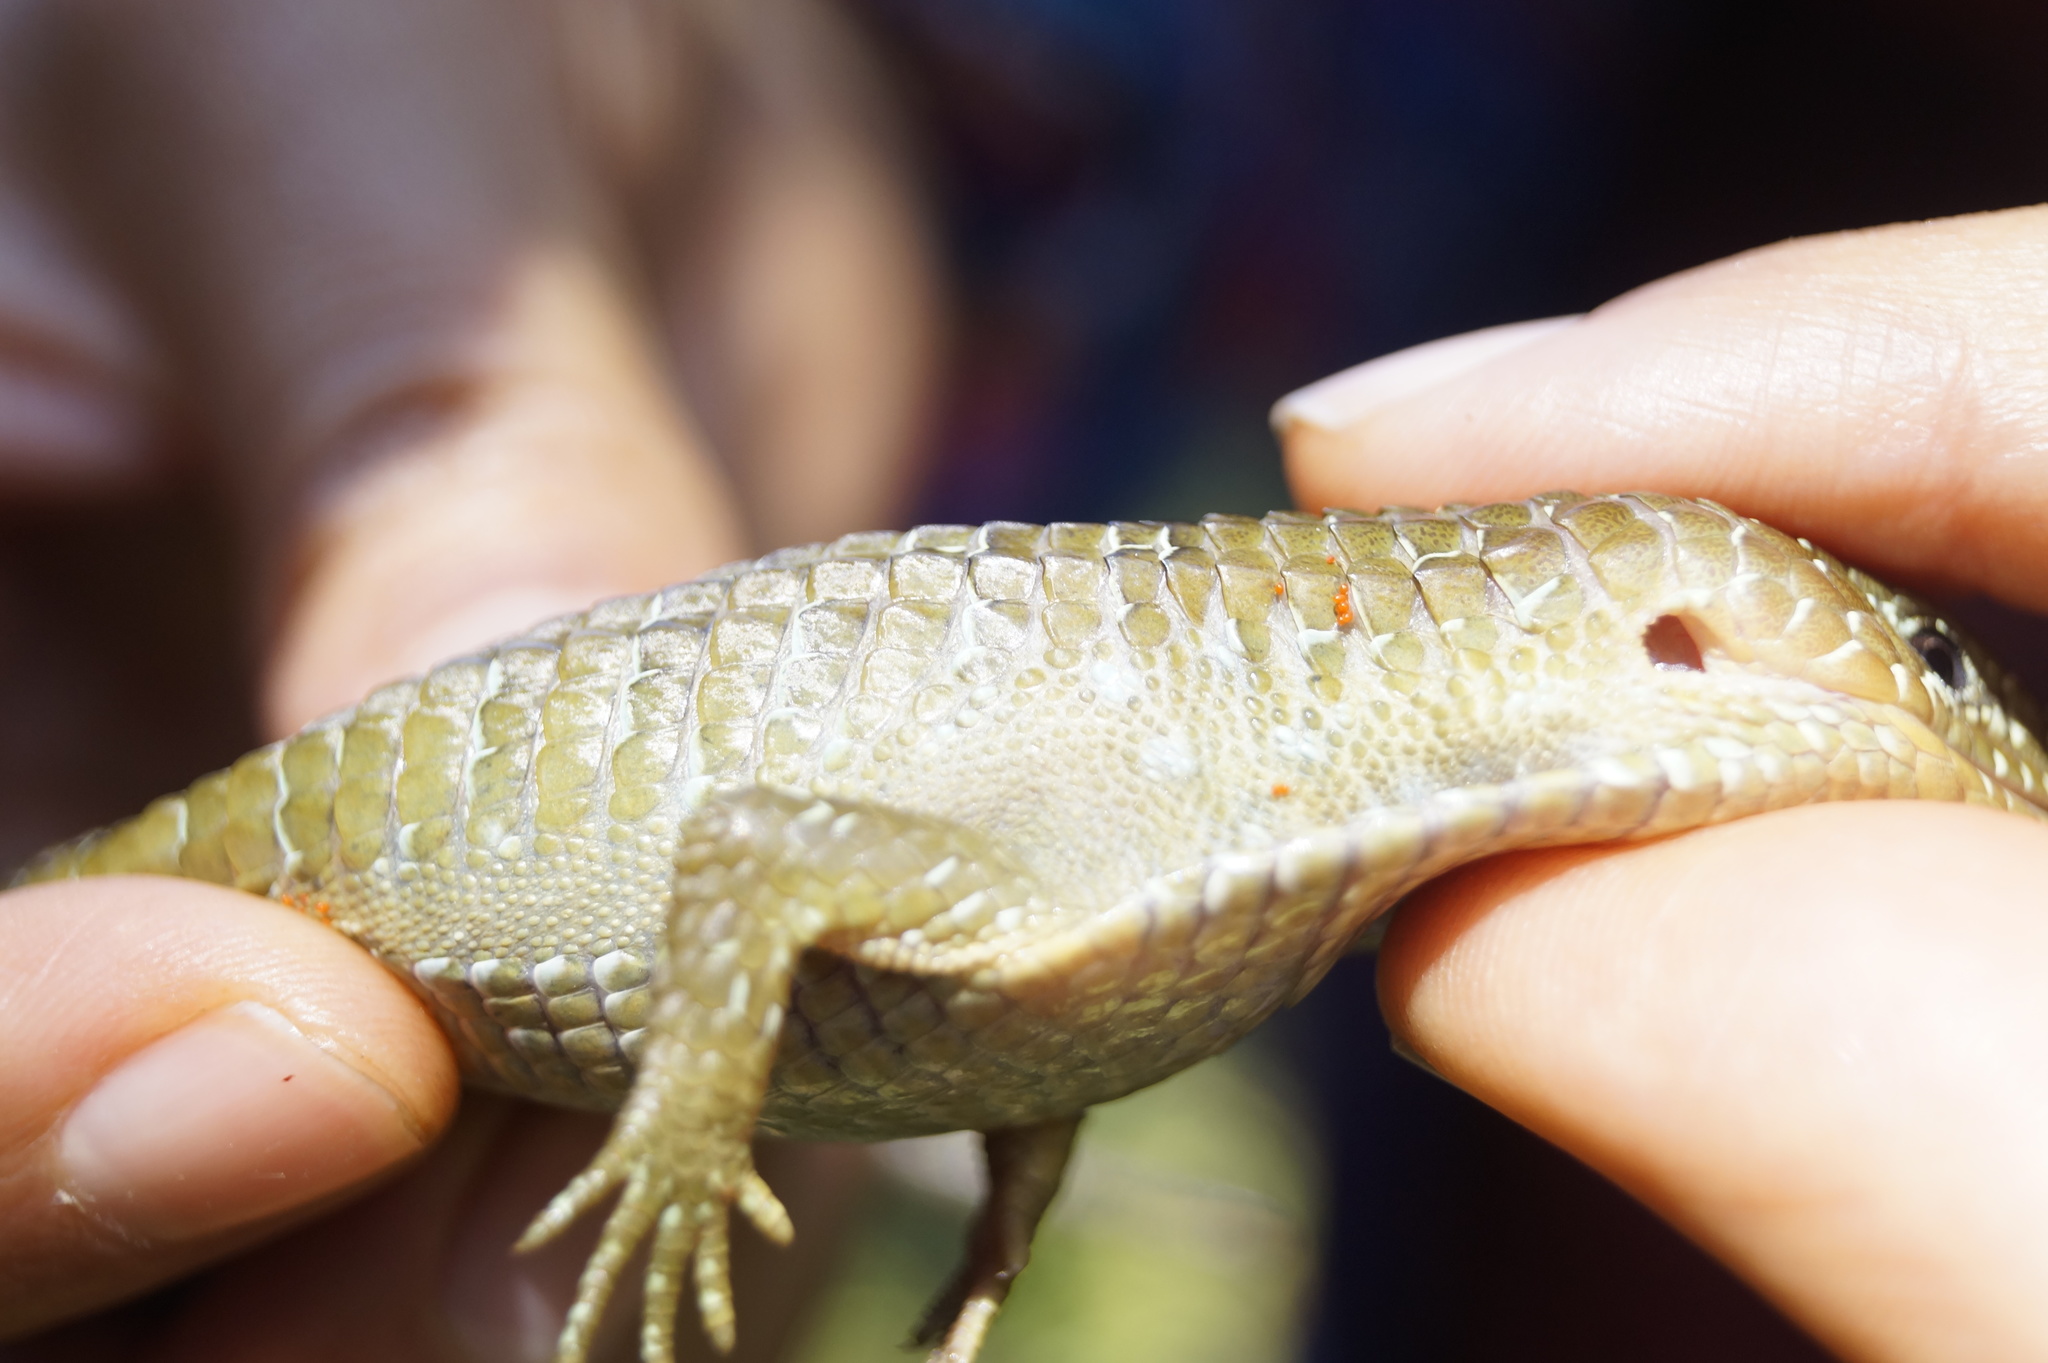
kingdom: Animalia
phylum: Chordata
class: Squamata
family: Anguidae
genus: Barisia
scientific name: Barisia imbricata
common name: Imbricate alligator lizard
